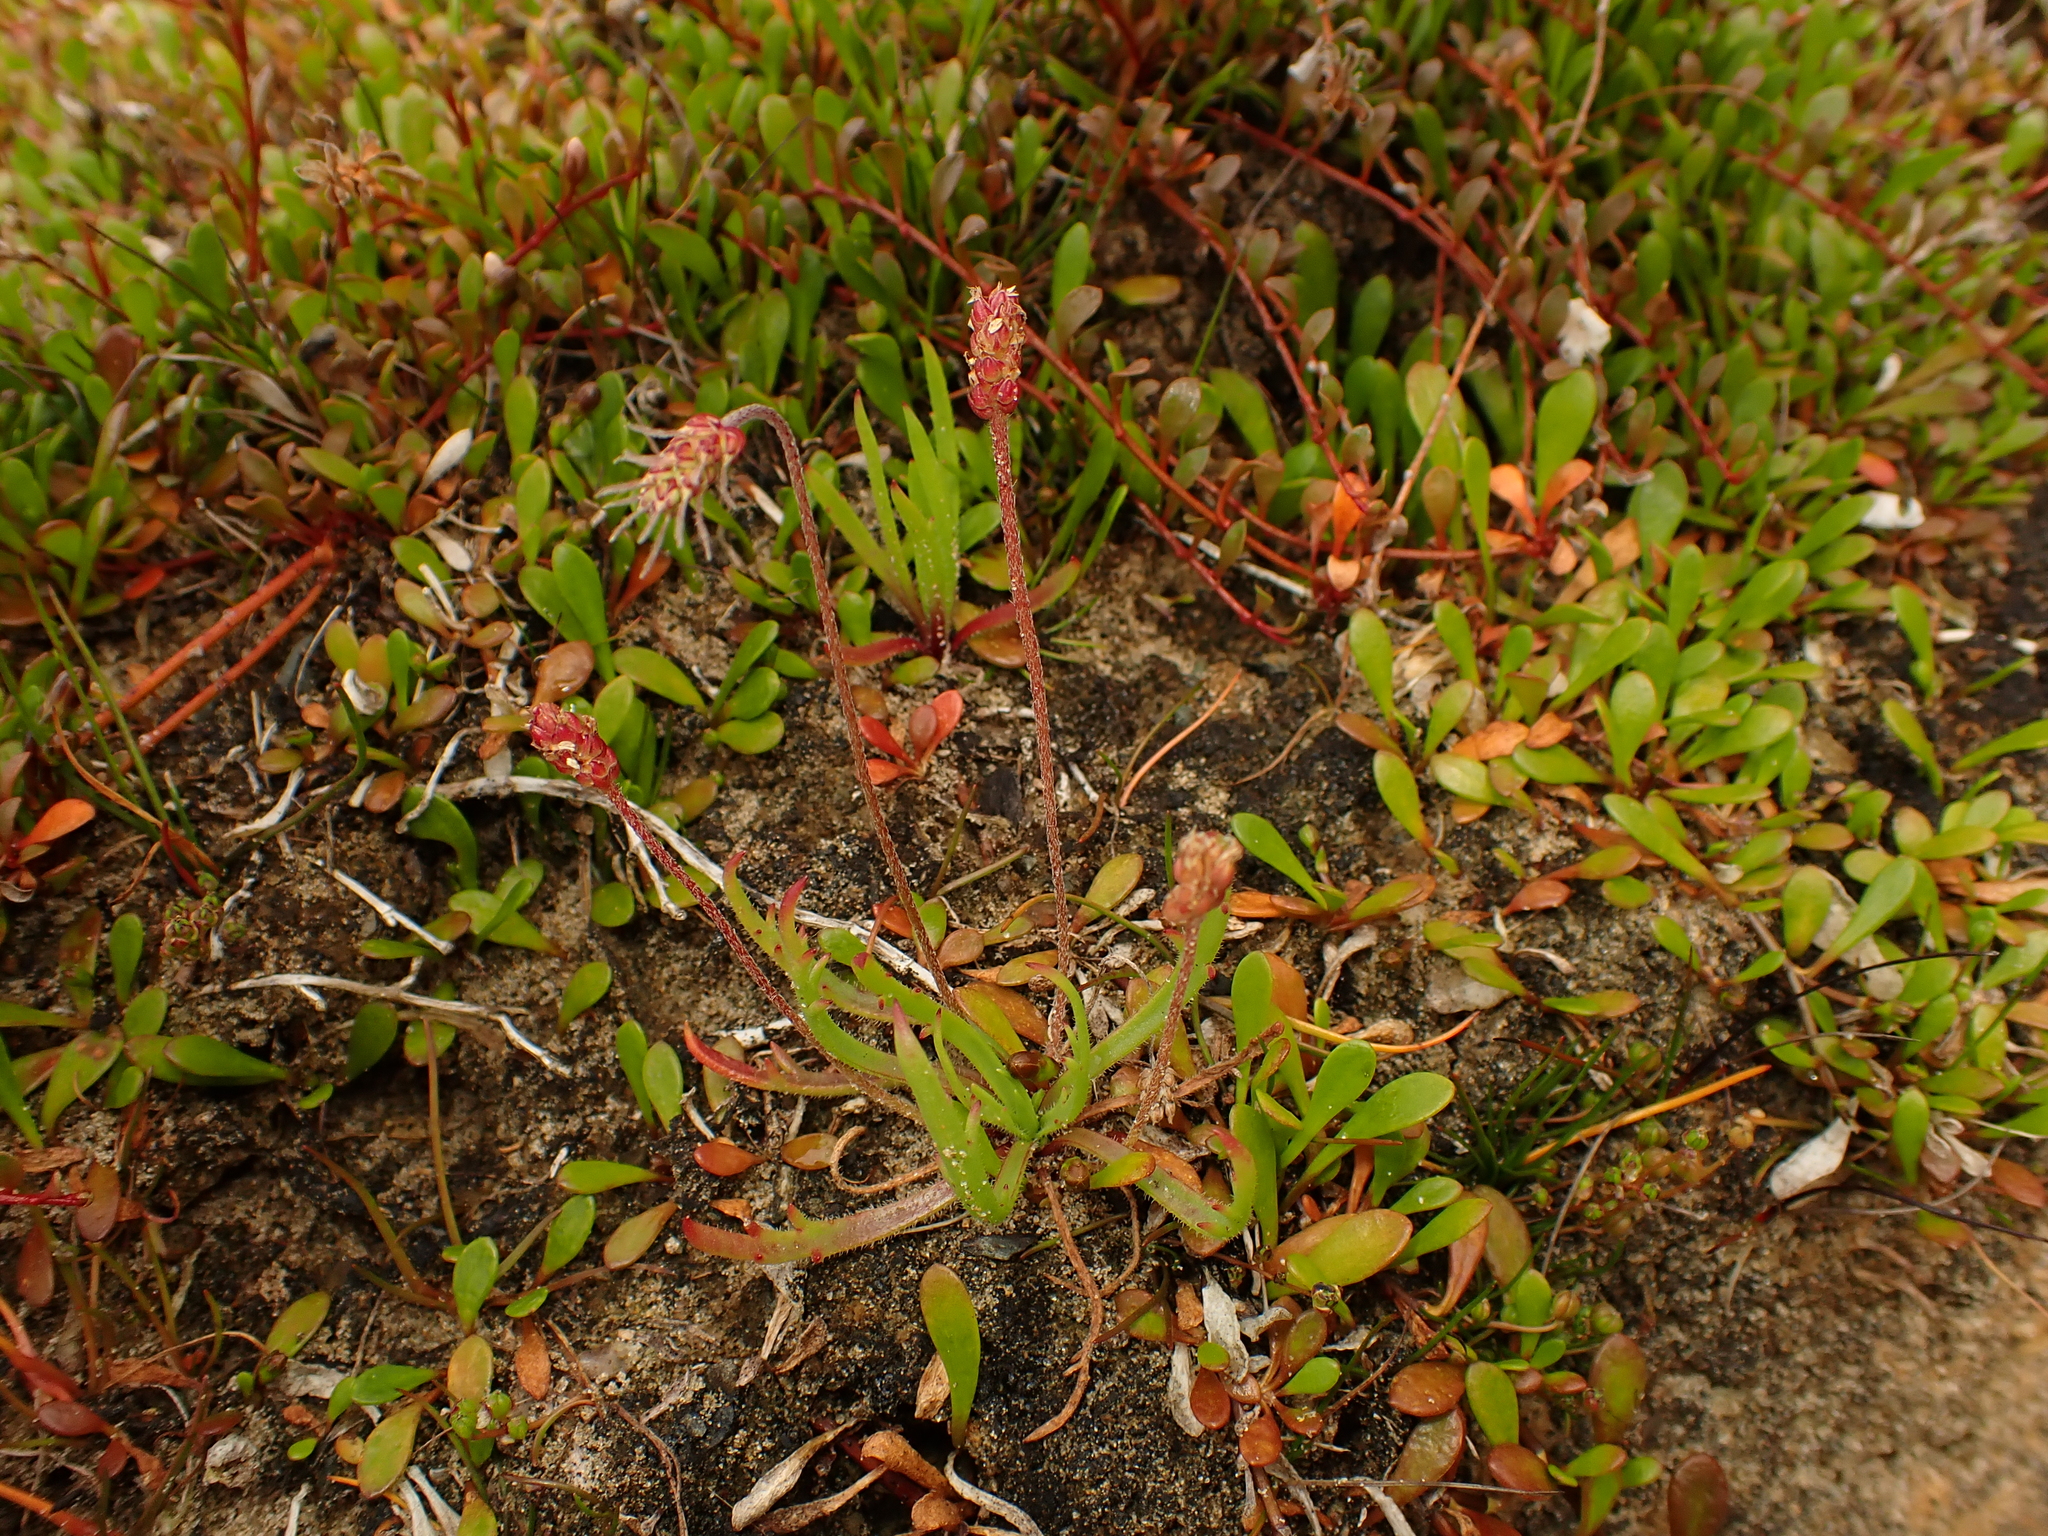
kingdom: Plantae
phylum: Tracheophyta
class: Magnoliopsida
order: Lamiales
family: Plantaginaceae
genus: Plantago
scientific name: Plantago coronopus
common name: Buck's-horn plantain
